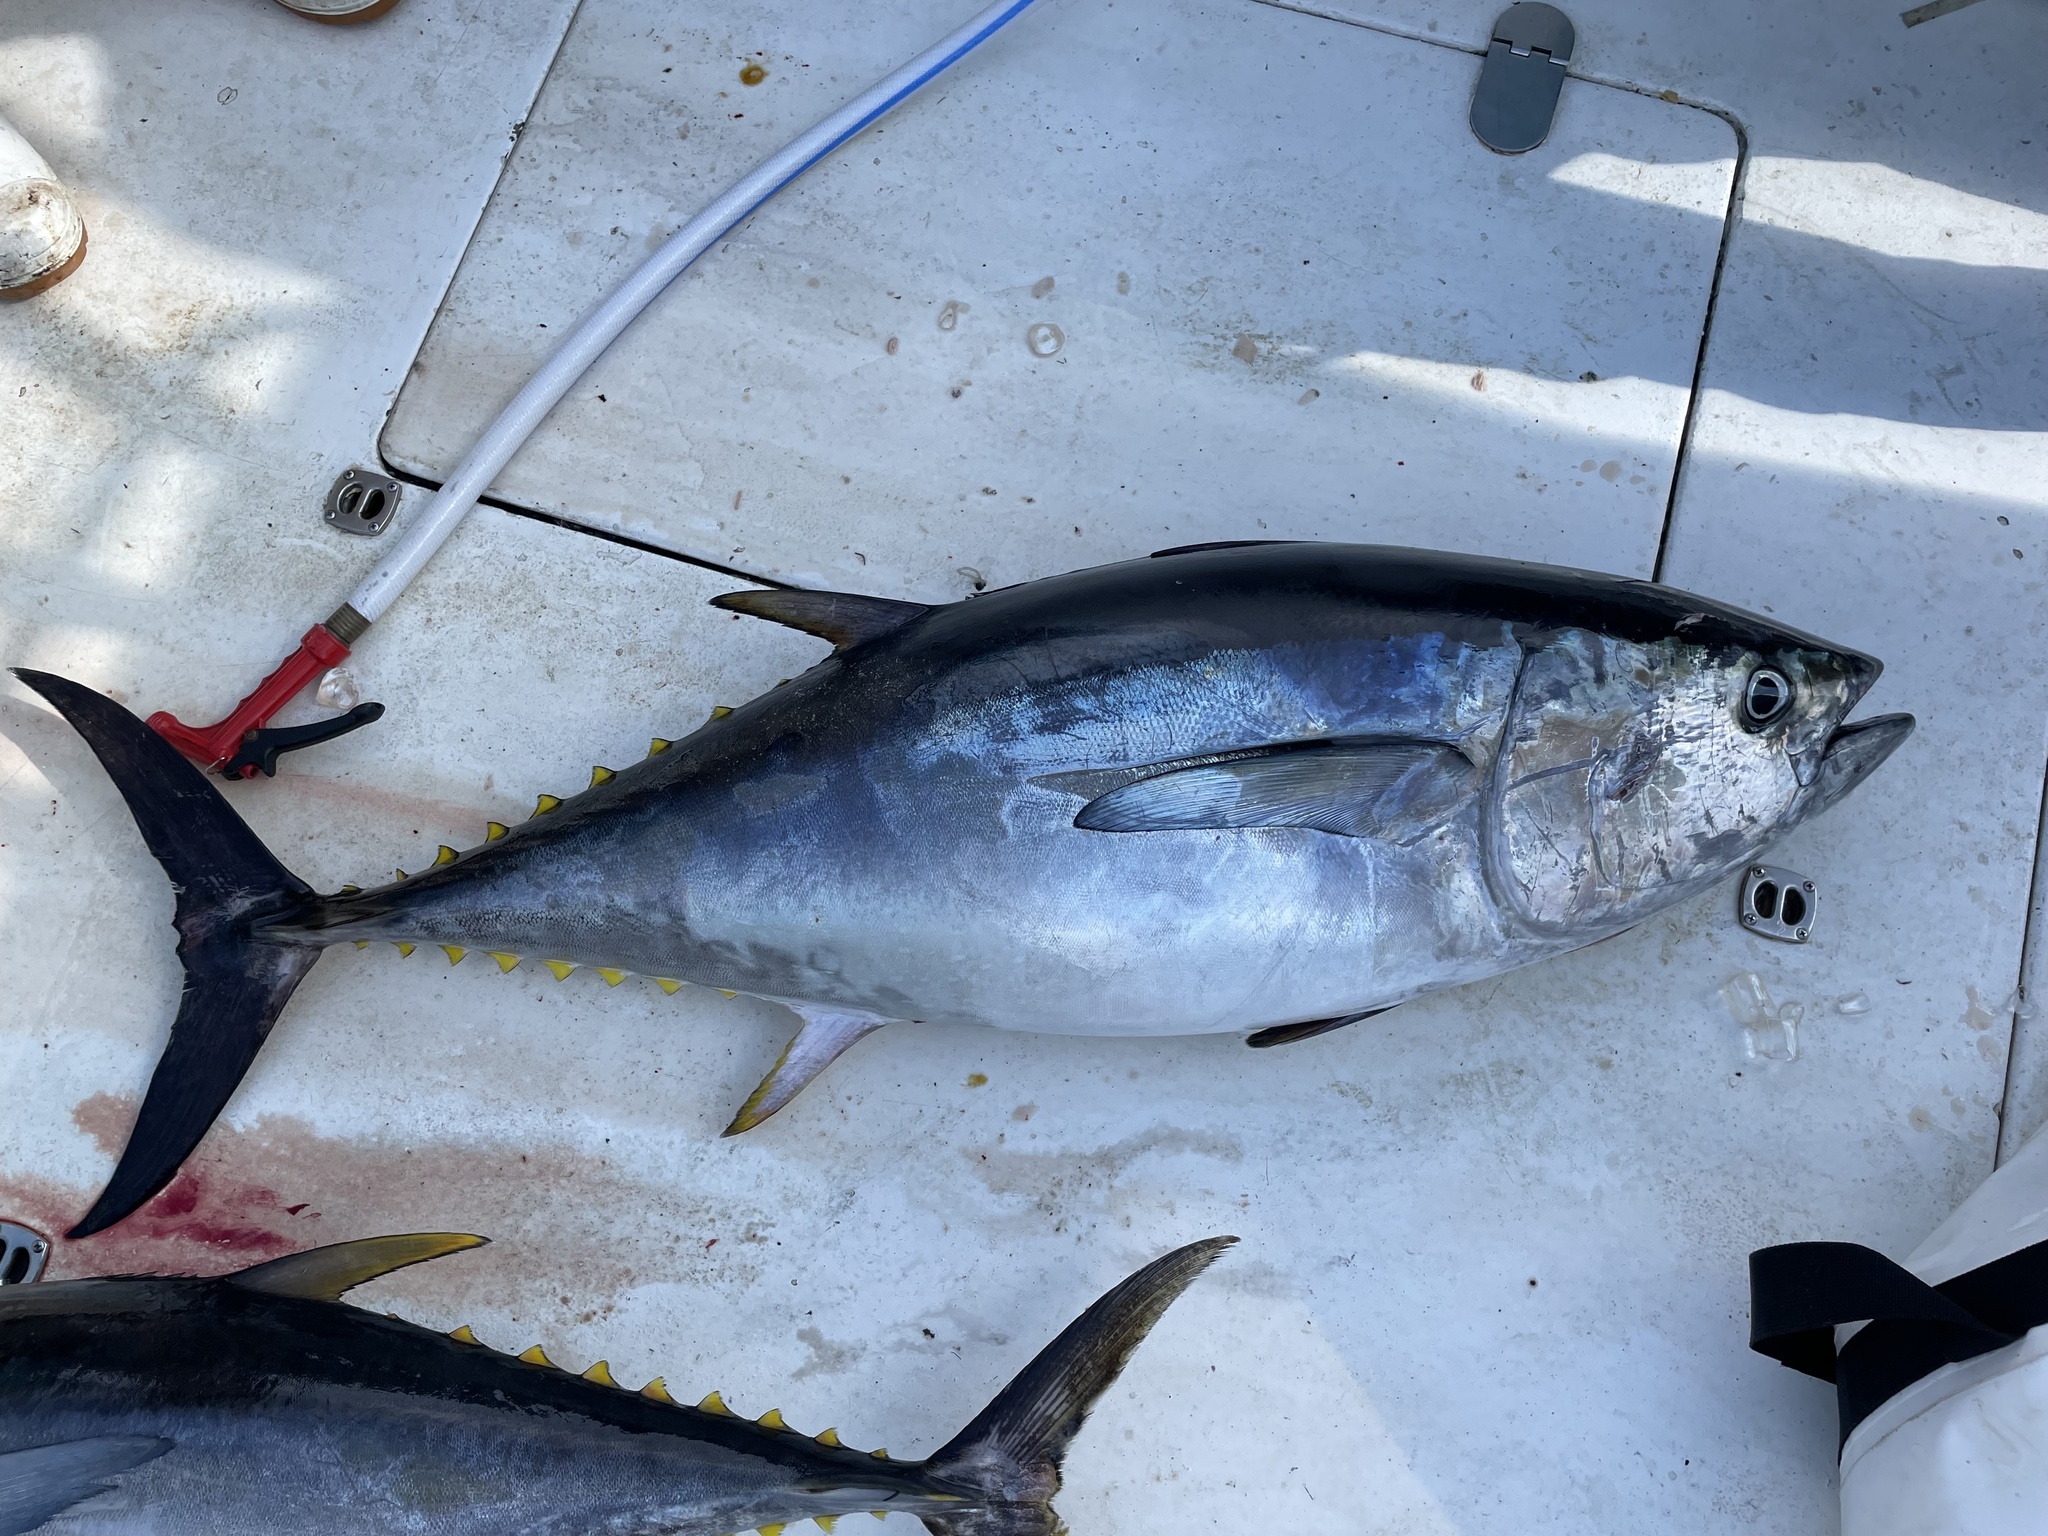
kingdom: Animalia
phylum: Chordata
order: Perciformes
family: Scombridae
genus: Thunnus
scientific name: Thunnus obesus
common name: Bigeye tuna
